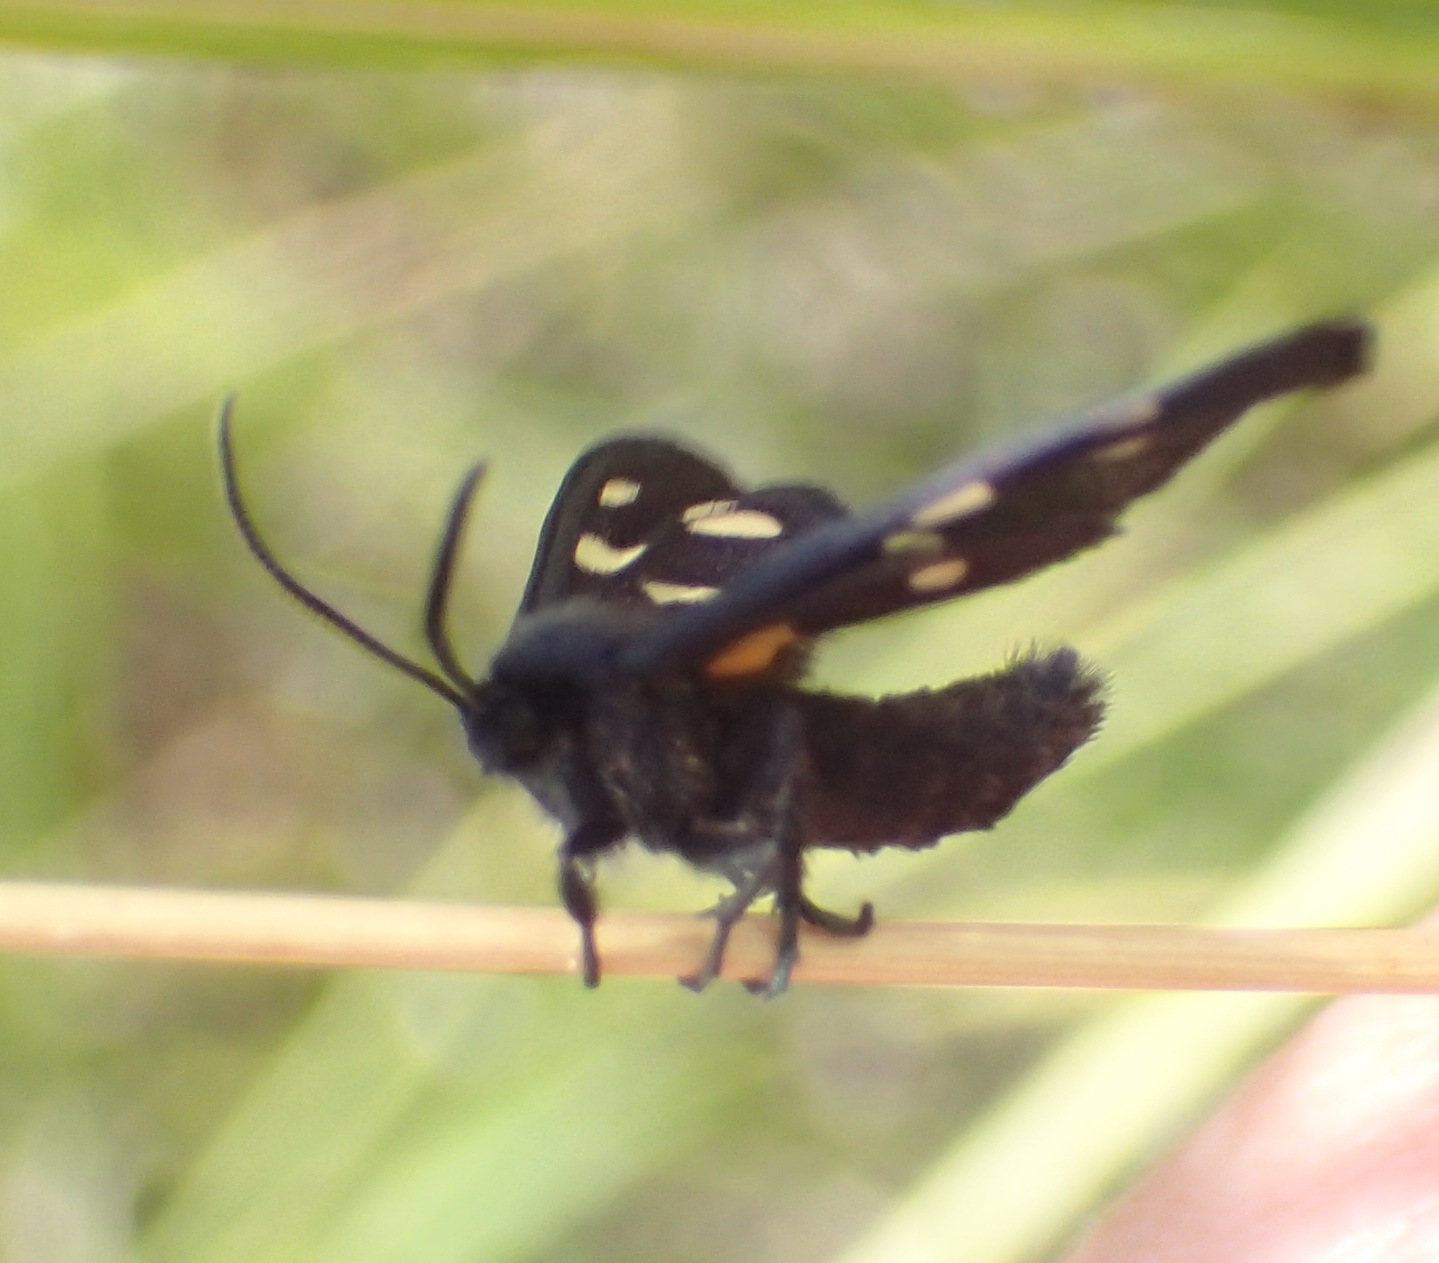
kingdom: Animalia
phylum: Arthropoda
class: Insecta
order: Lepidoptera
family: Erebidae
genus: Amata
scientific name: Amata Asinusca atricornis
